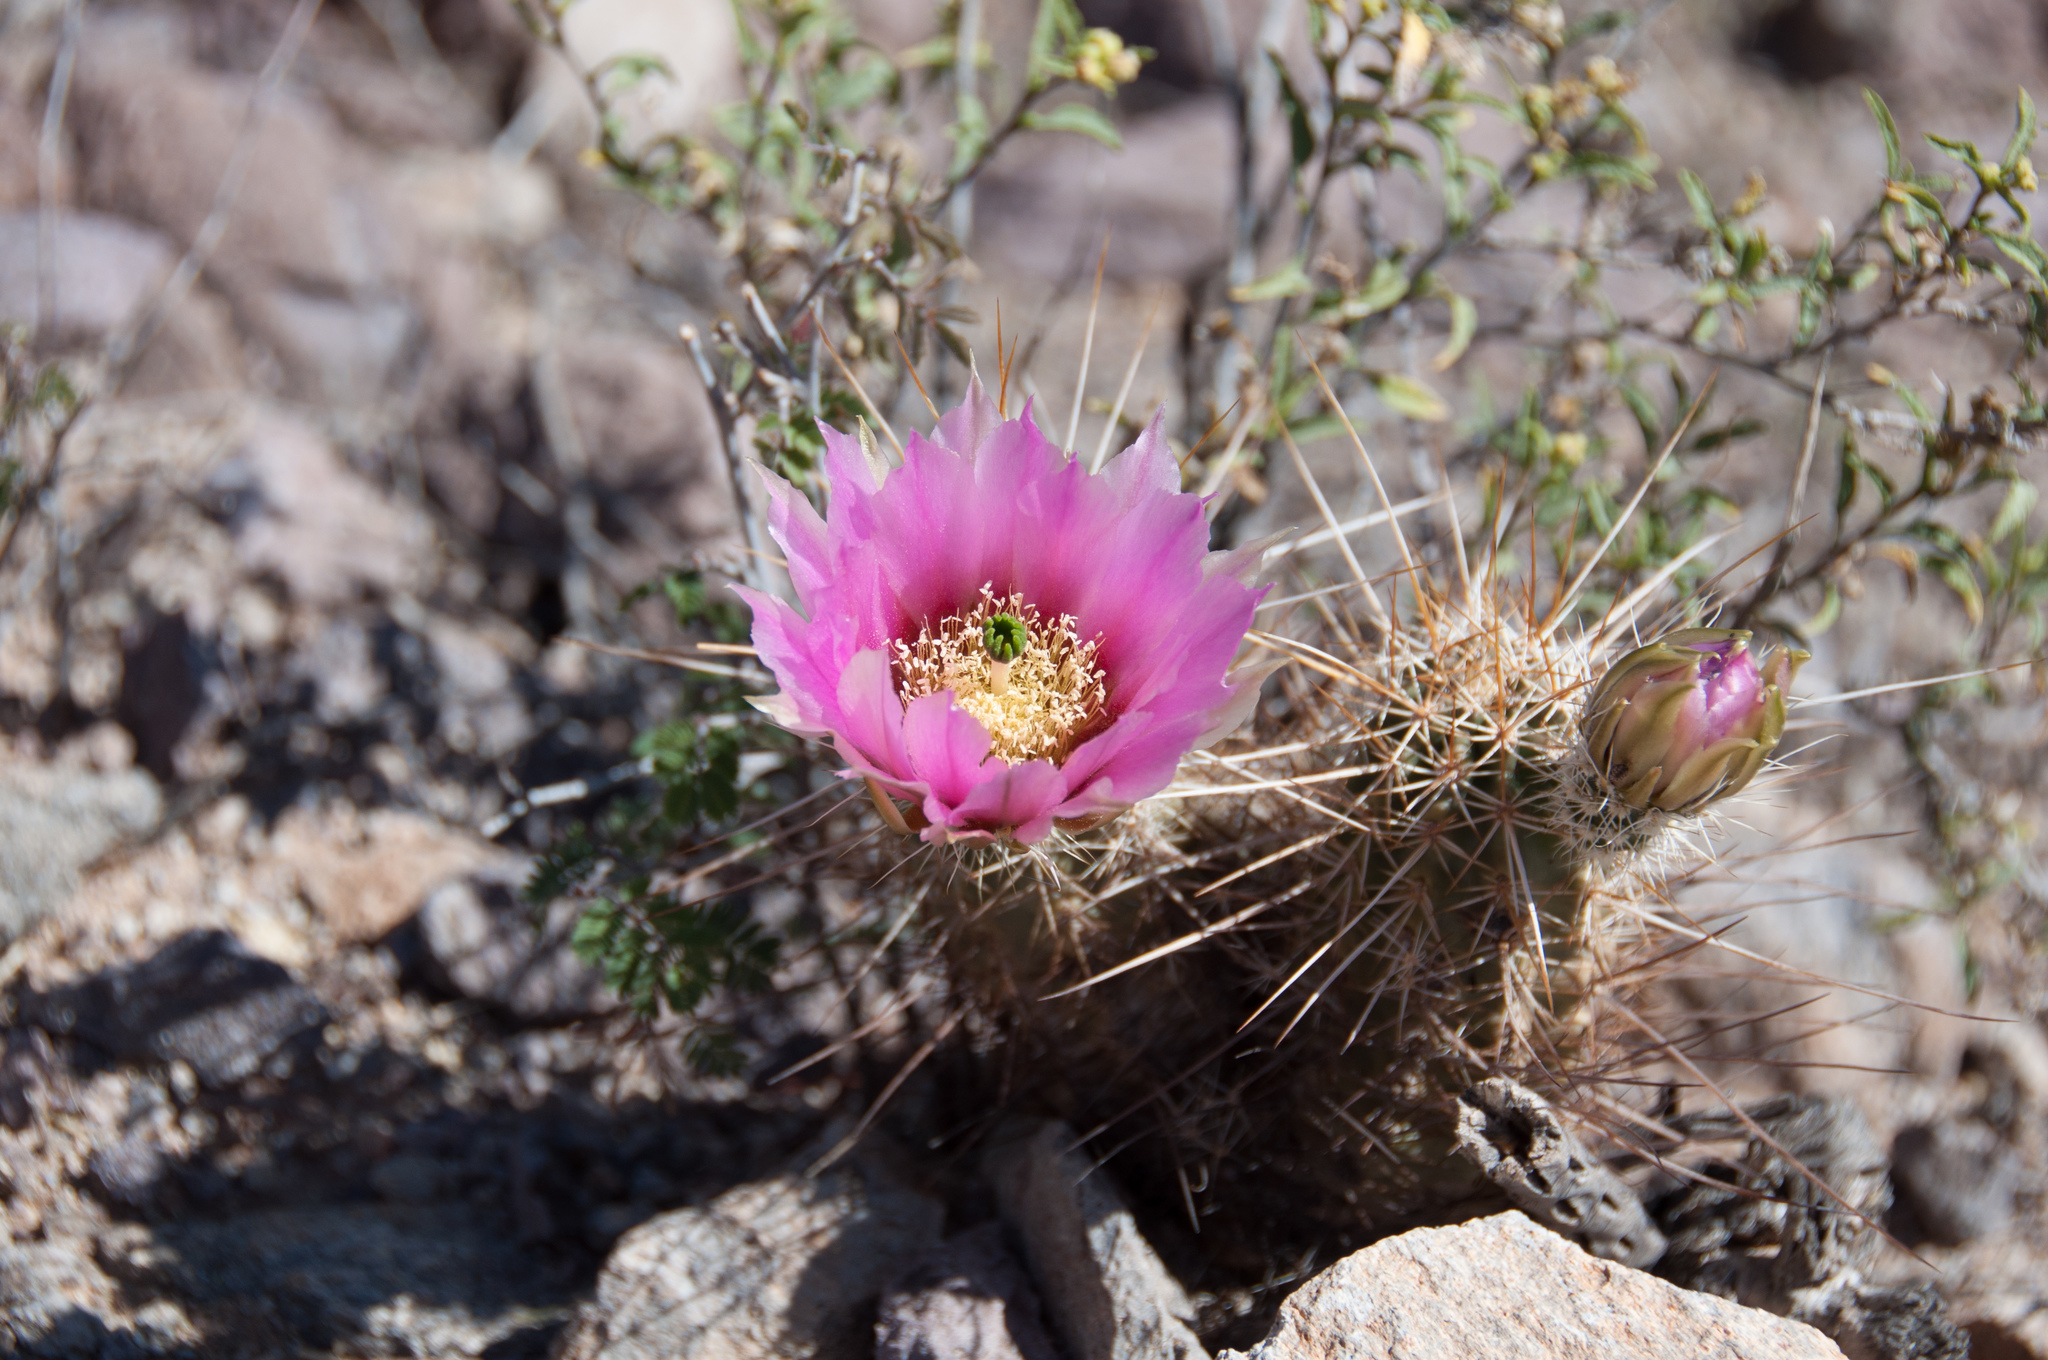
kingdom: Plantae
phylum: Tracheophyta
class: Magnoliopsida
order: Caryophyllales
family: Cactaceae
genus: Echinocereus
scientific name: Echinocereus fasciculatus
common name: Bundle hedgehog
